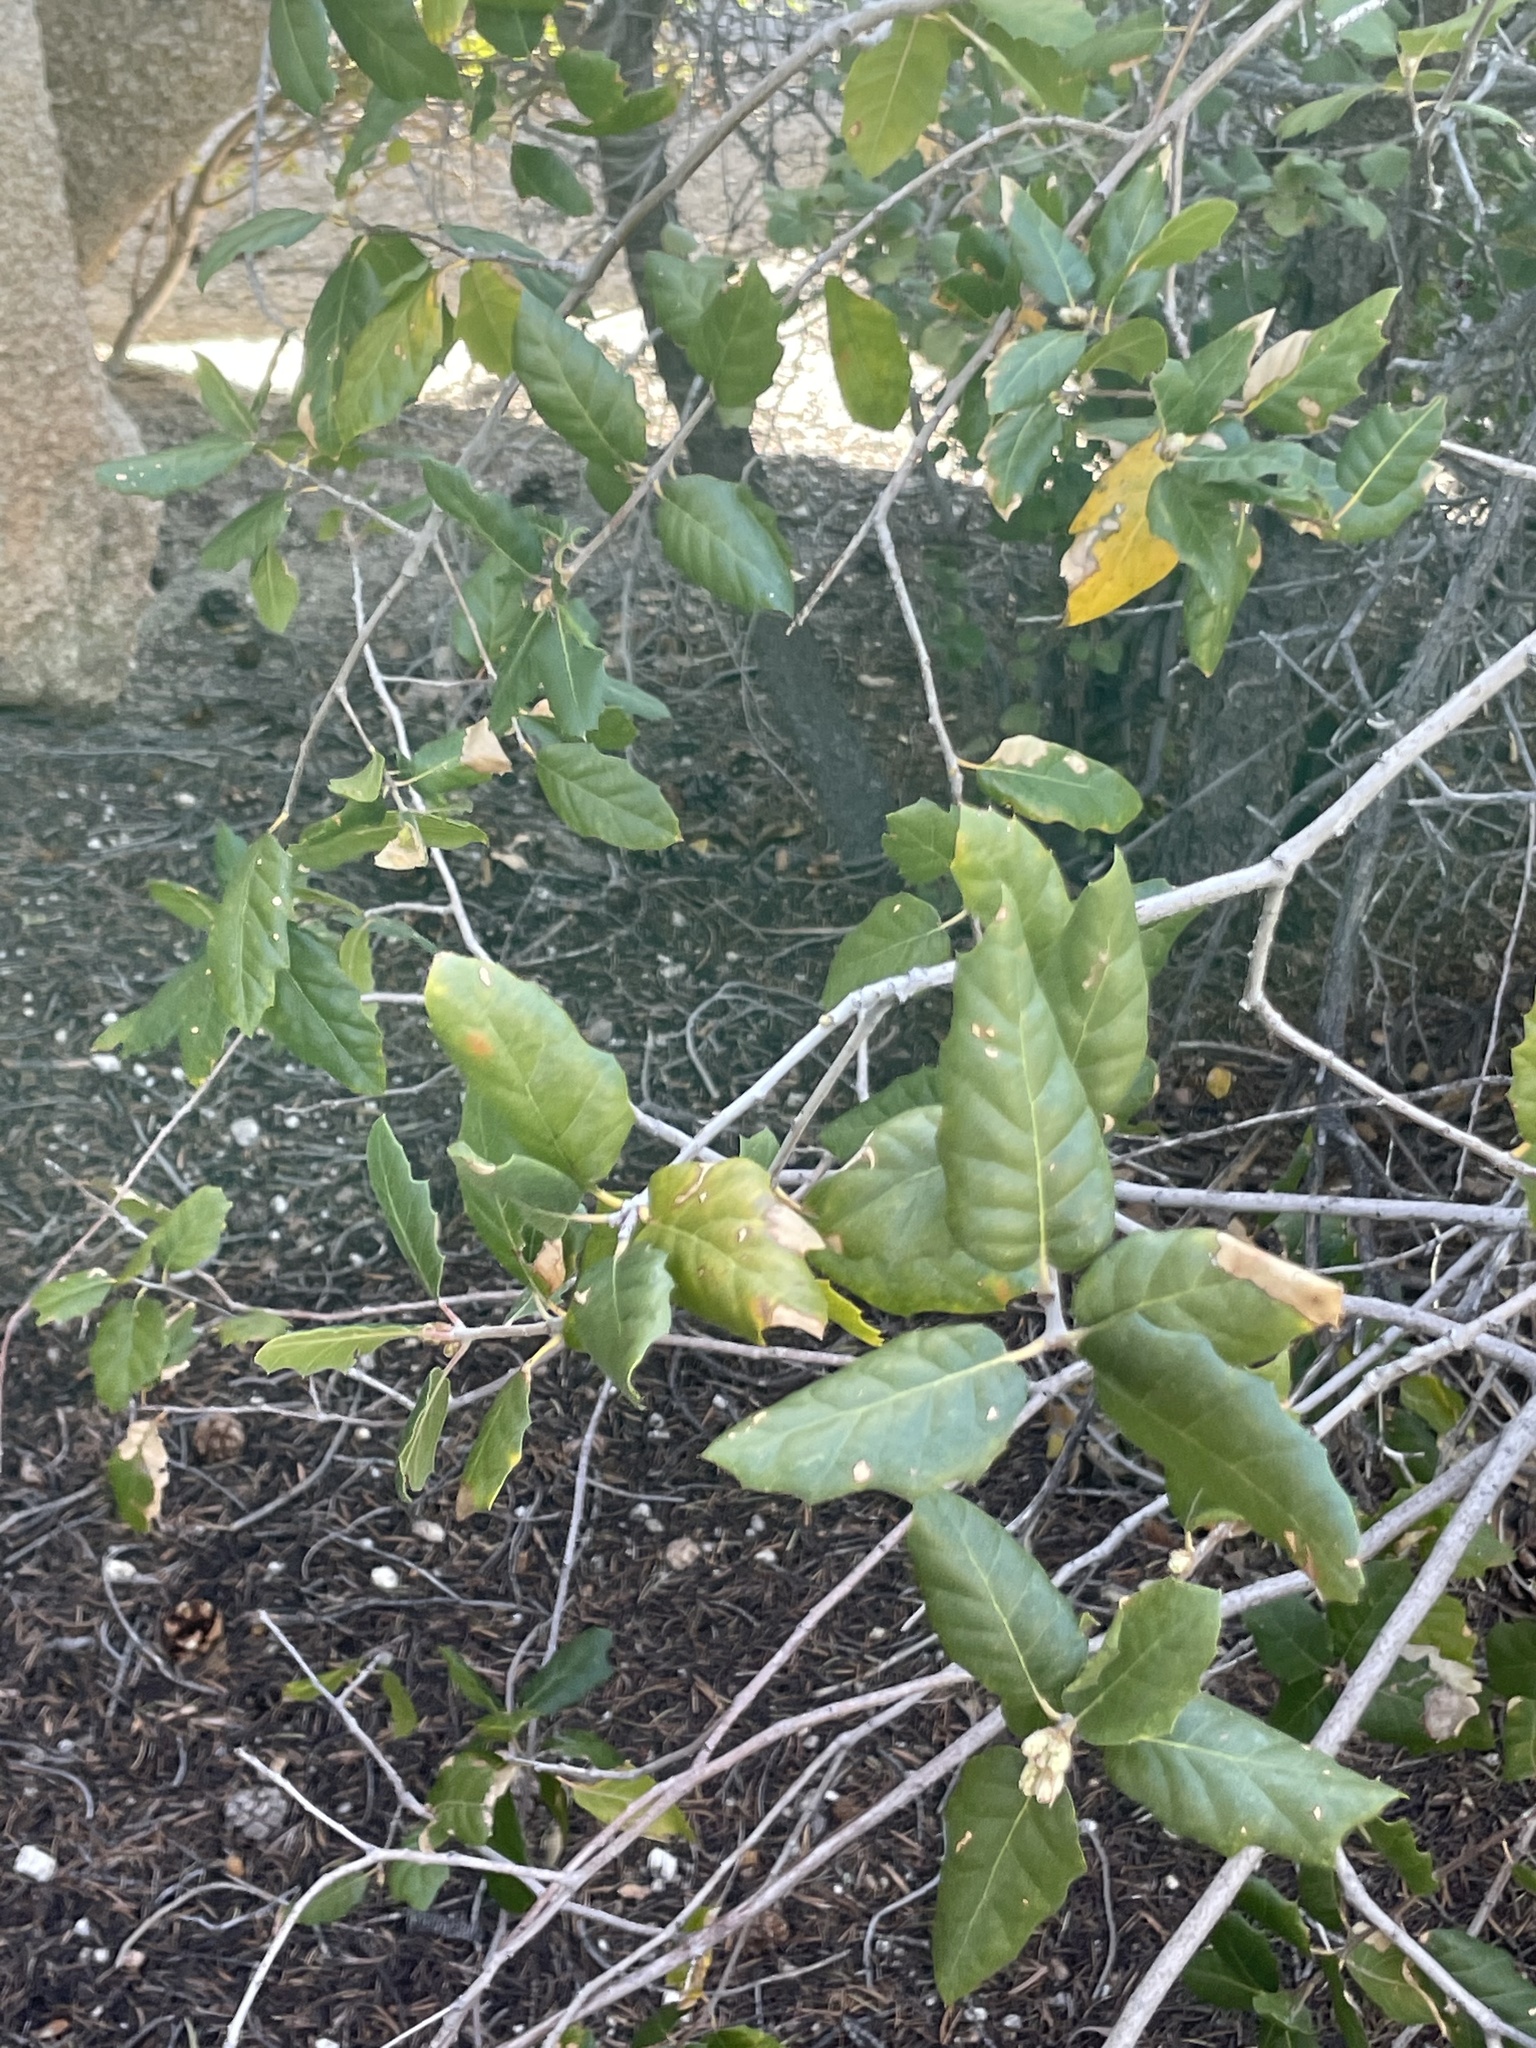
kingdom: Plantae
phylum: Tracheophyta
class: Magnoliopsida
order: Fagales
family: Fagaceae
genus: Quercus
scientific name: Quercus agrifolia
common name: California live oak
